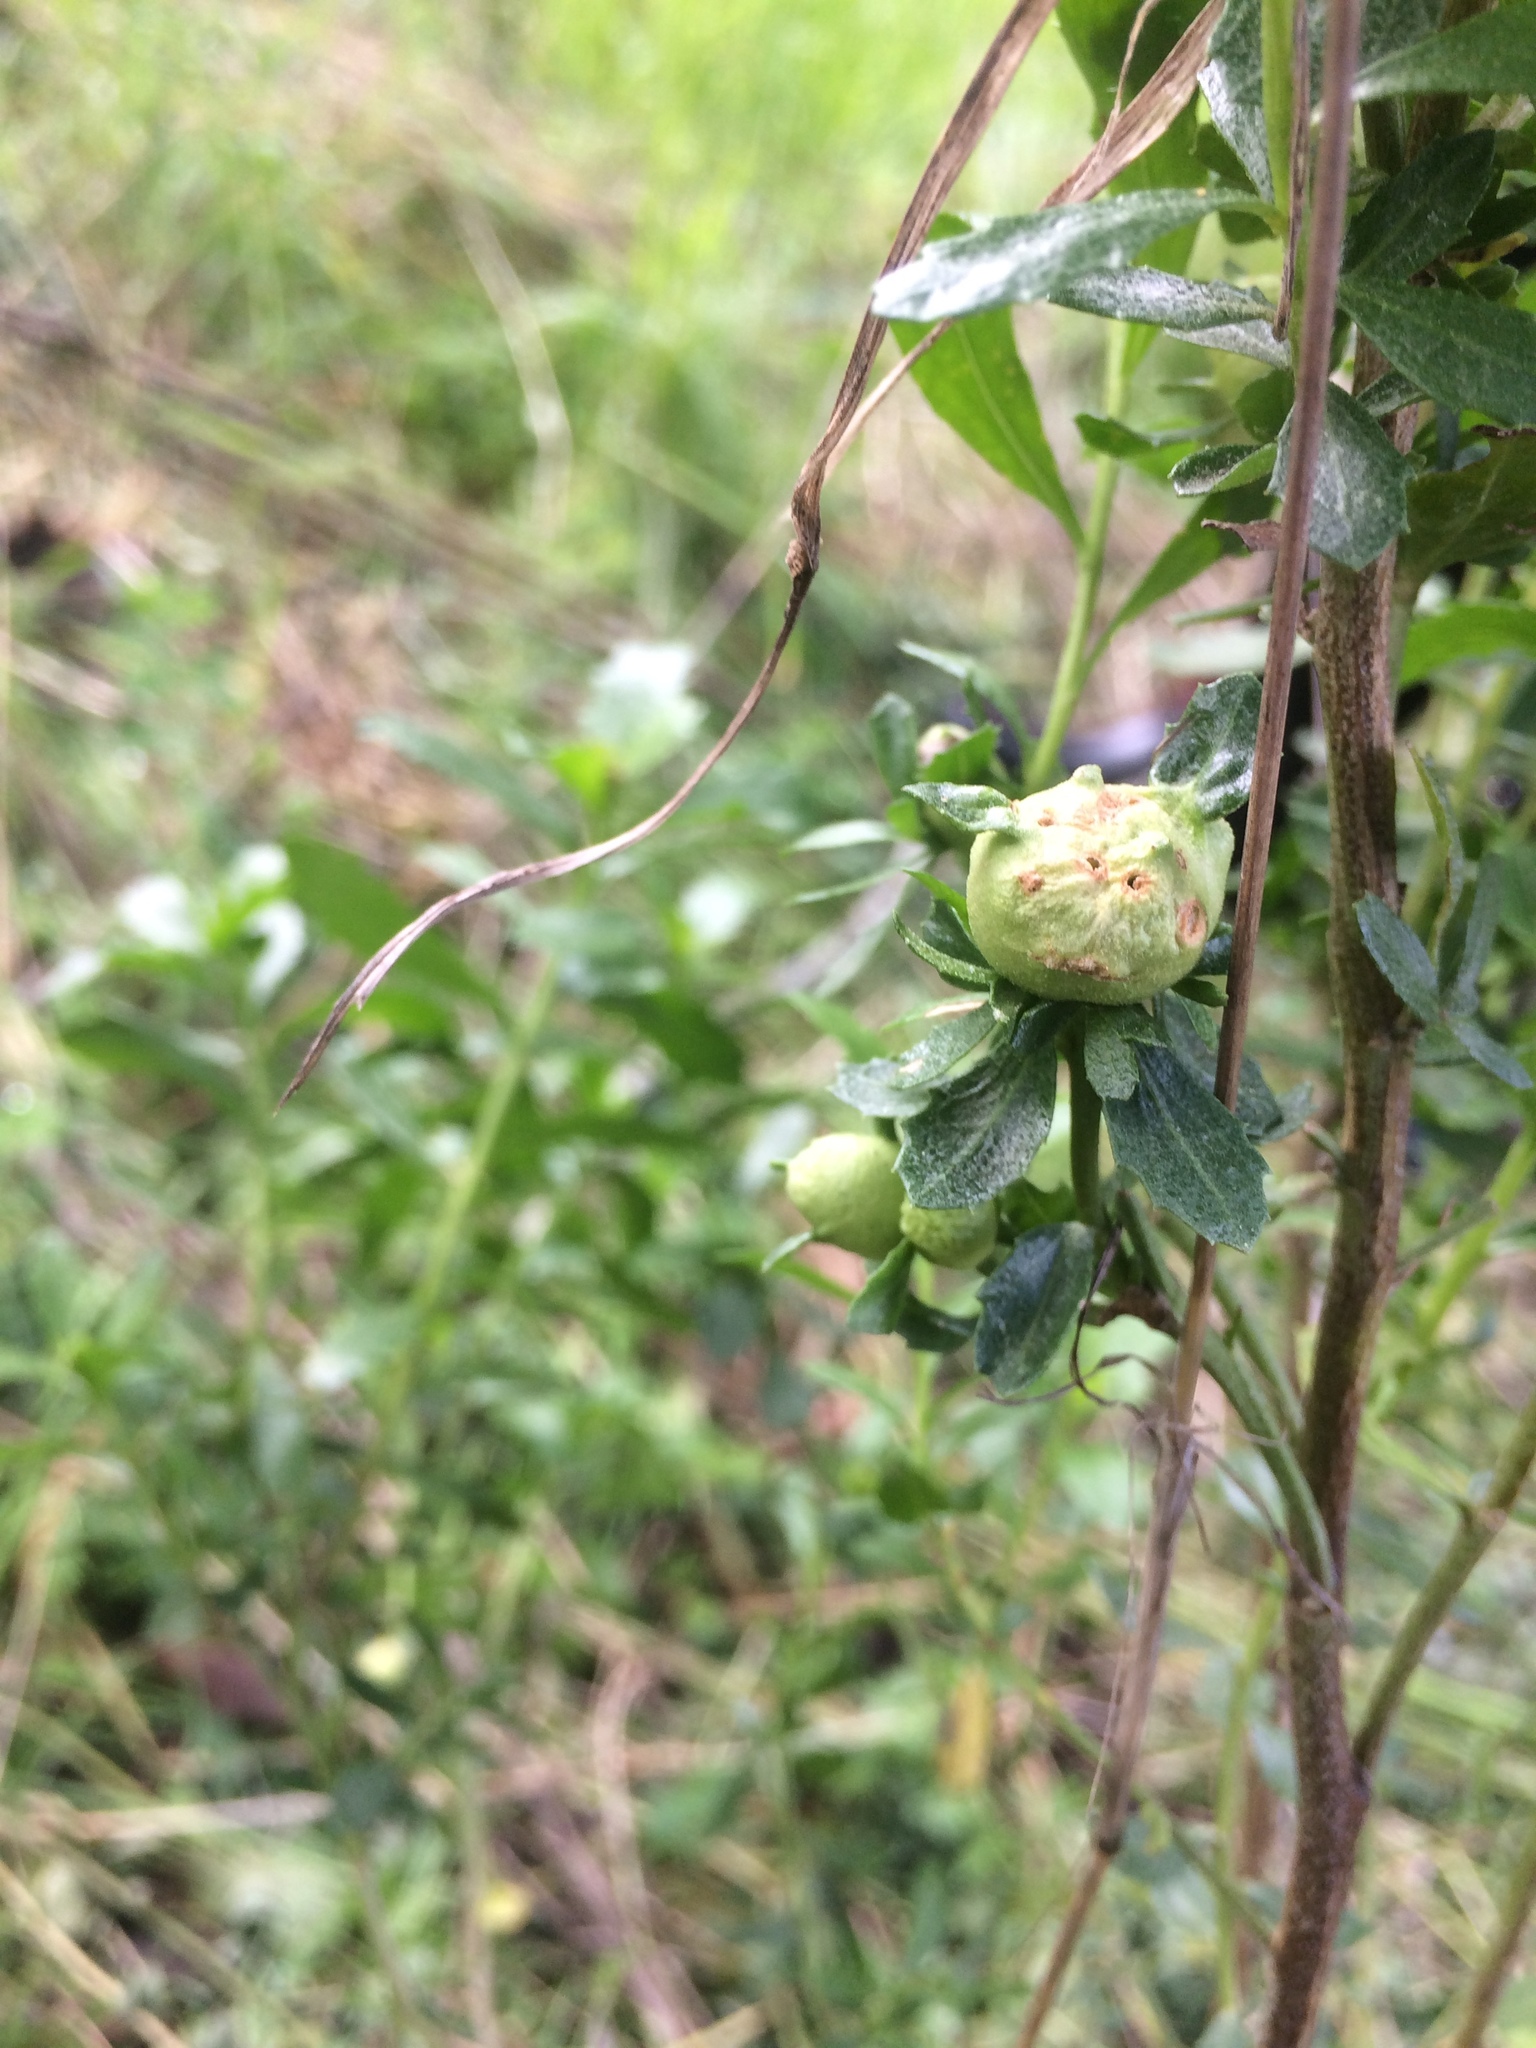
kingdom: Animalia
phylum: Arthropoda
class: Insecta
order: Diptera
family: Cecidomyiidae
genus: Rhopalomyia
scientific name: Rhopalomyia californica
